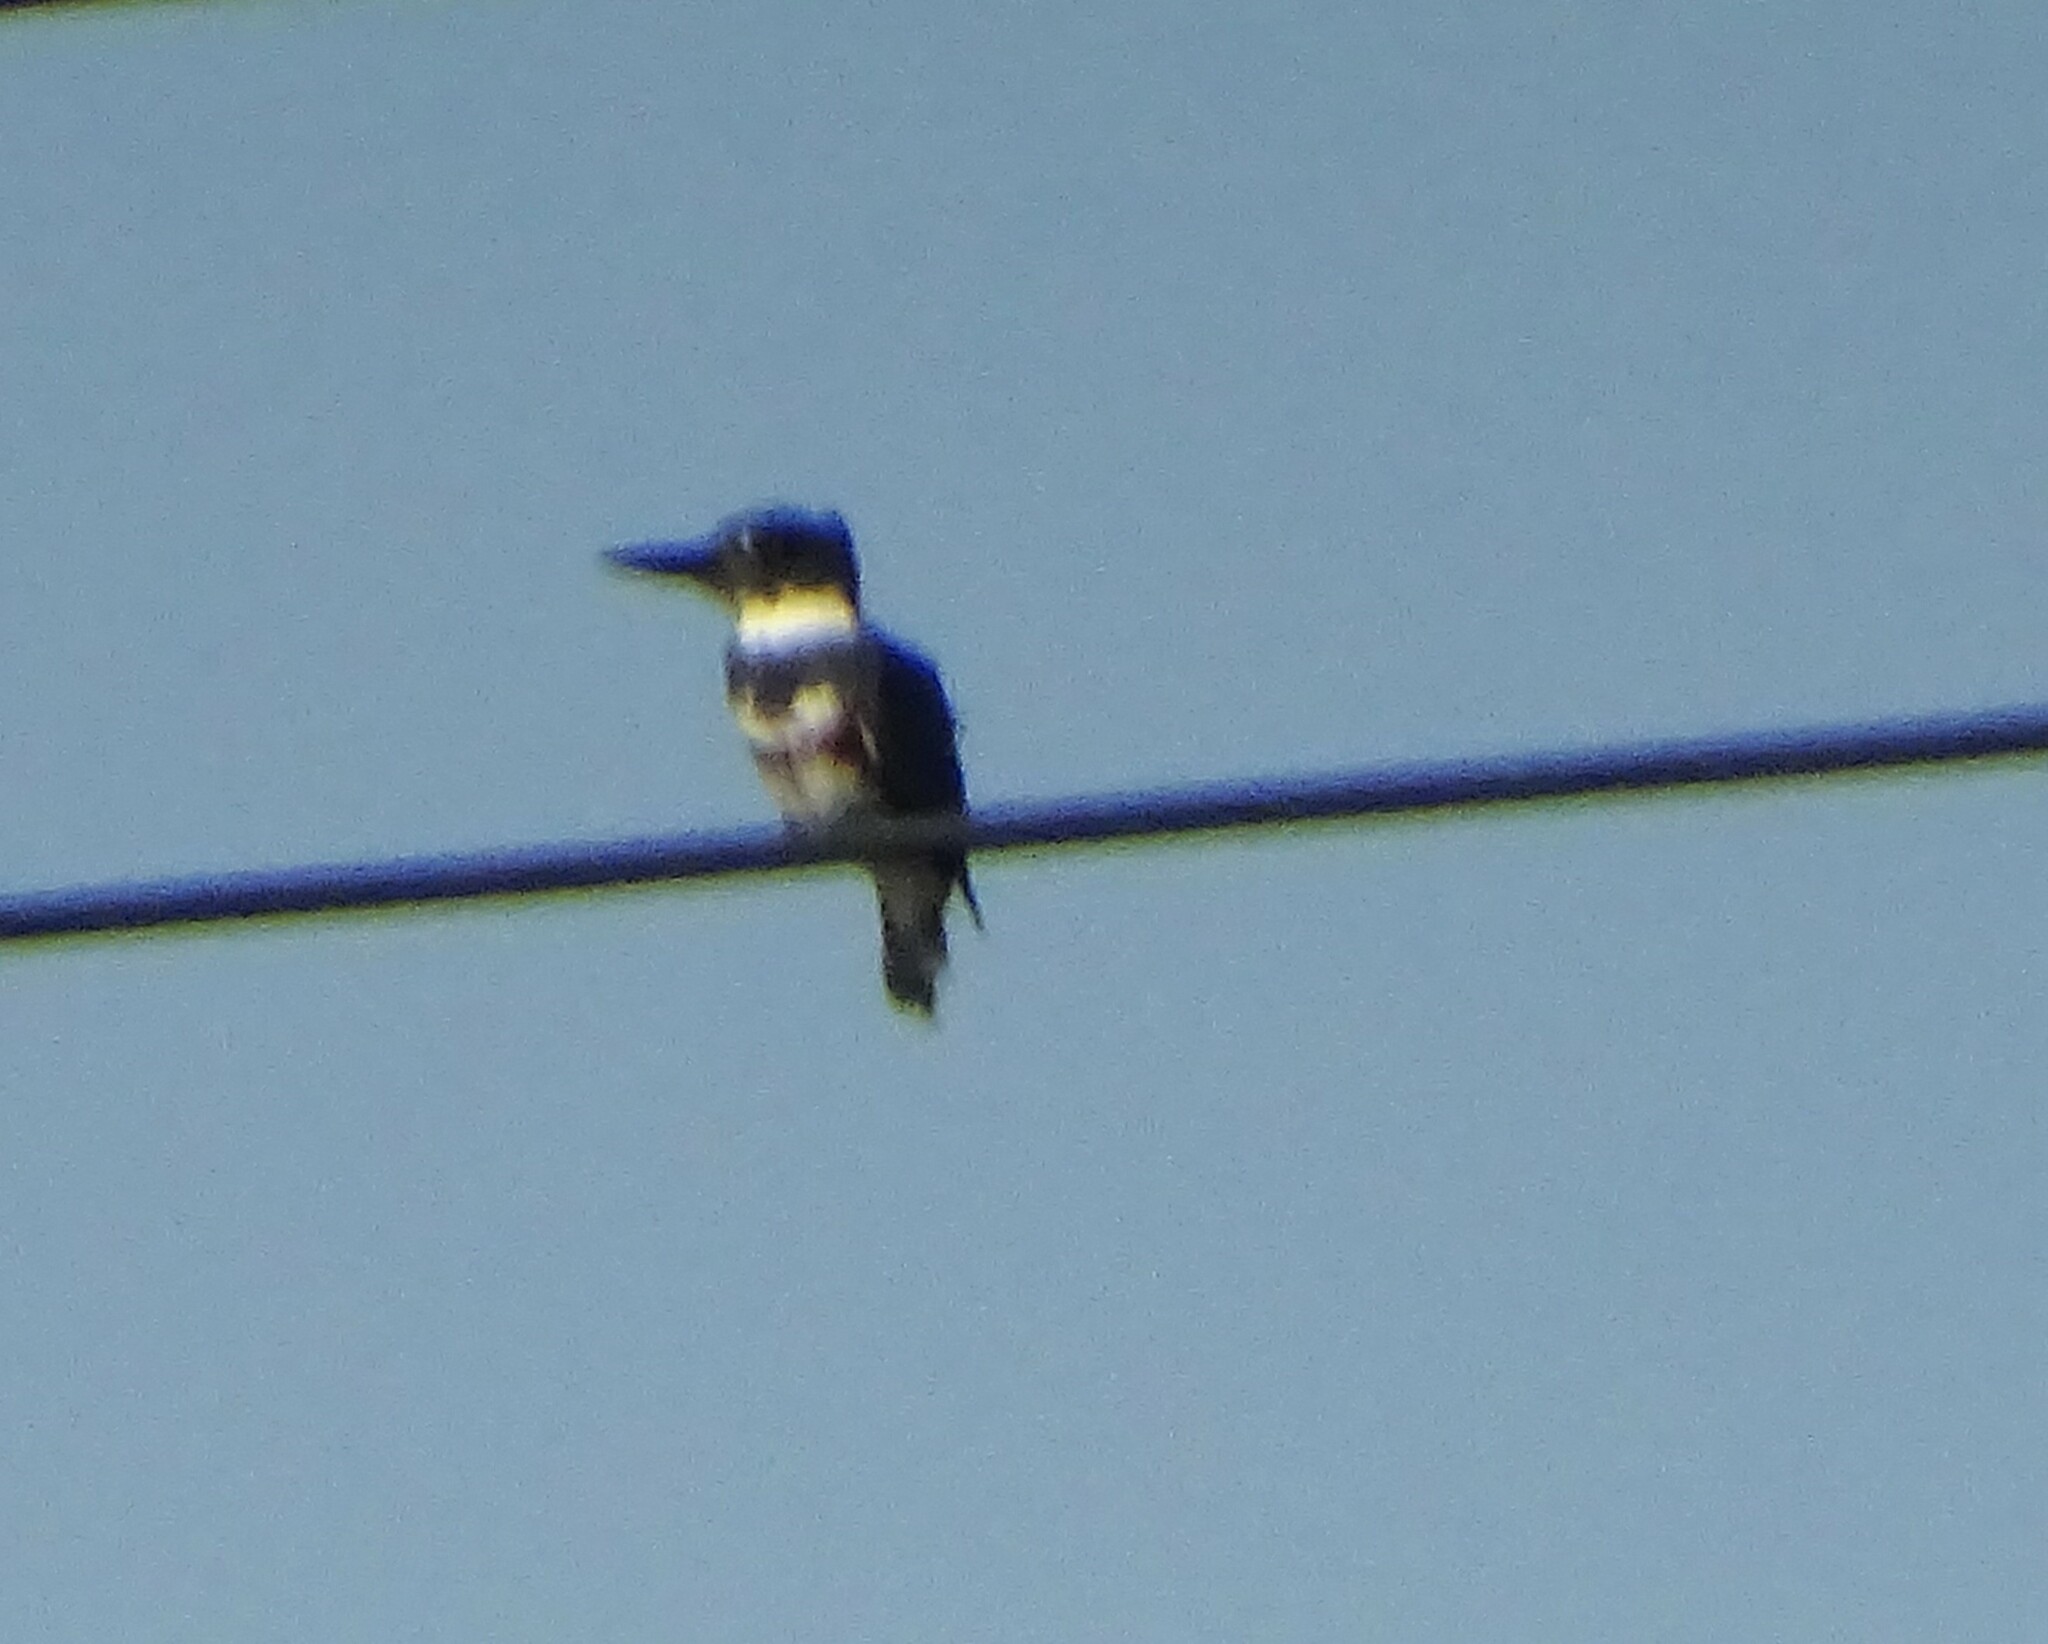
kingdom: Animalia
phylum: Chordata
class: Aves
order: Coraciiformes
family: Alcedinidae
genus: Megaceryle
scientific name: Megaceryle alcyon
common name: Belted kingfisher
